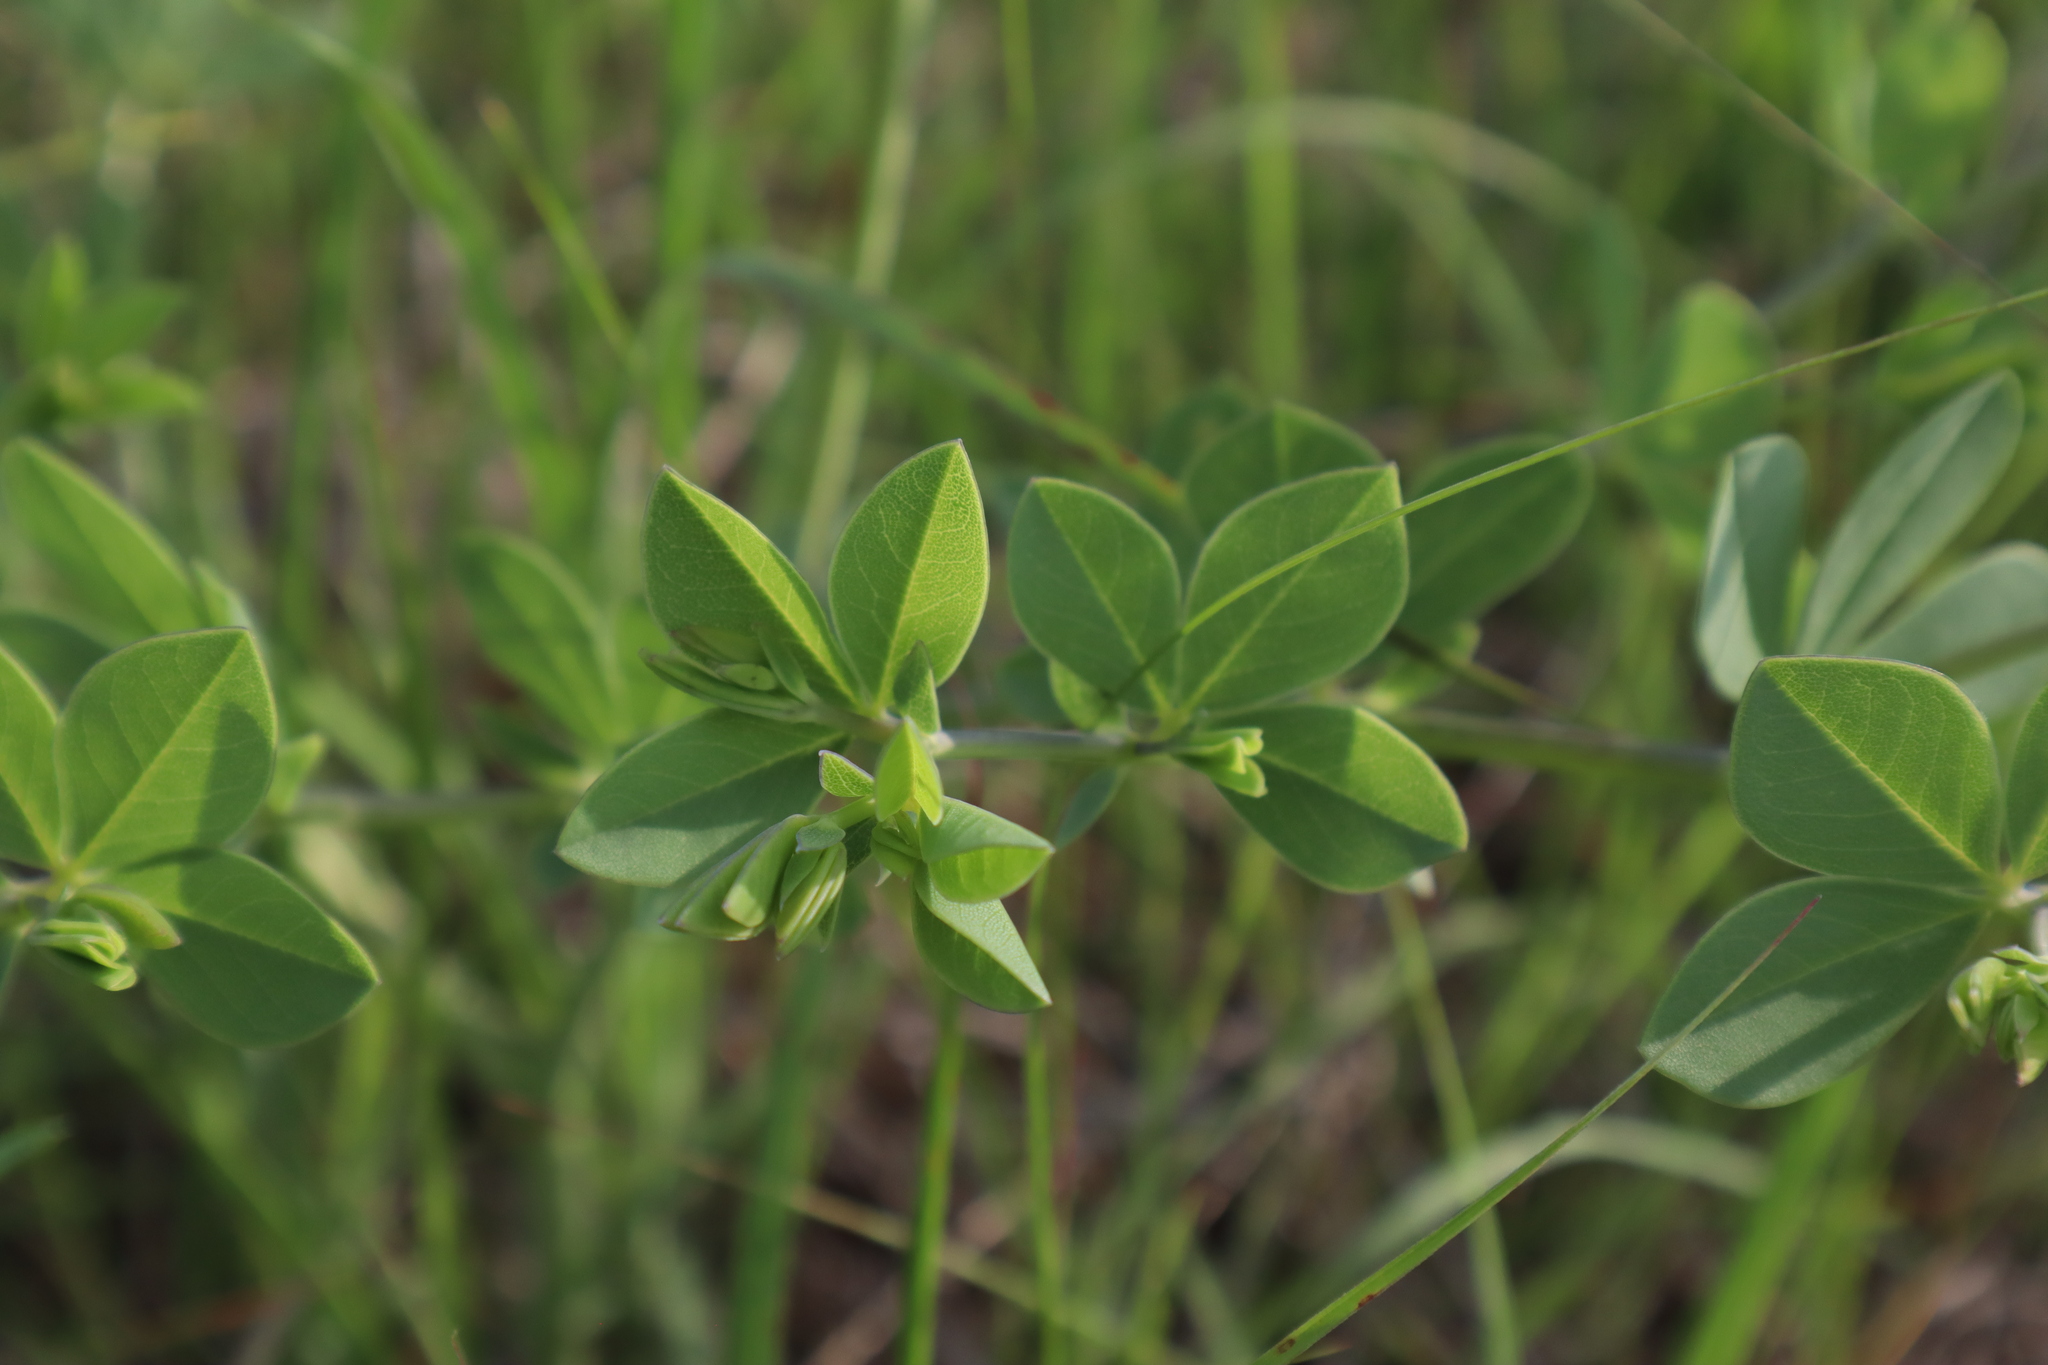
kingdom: Plantae
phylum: Tracheophyta
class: Magnoliopsida
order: Fabales
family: Fabaceae
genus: Baptisia
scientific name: Baptisia australis
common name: Blue false indigo
